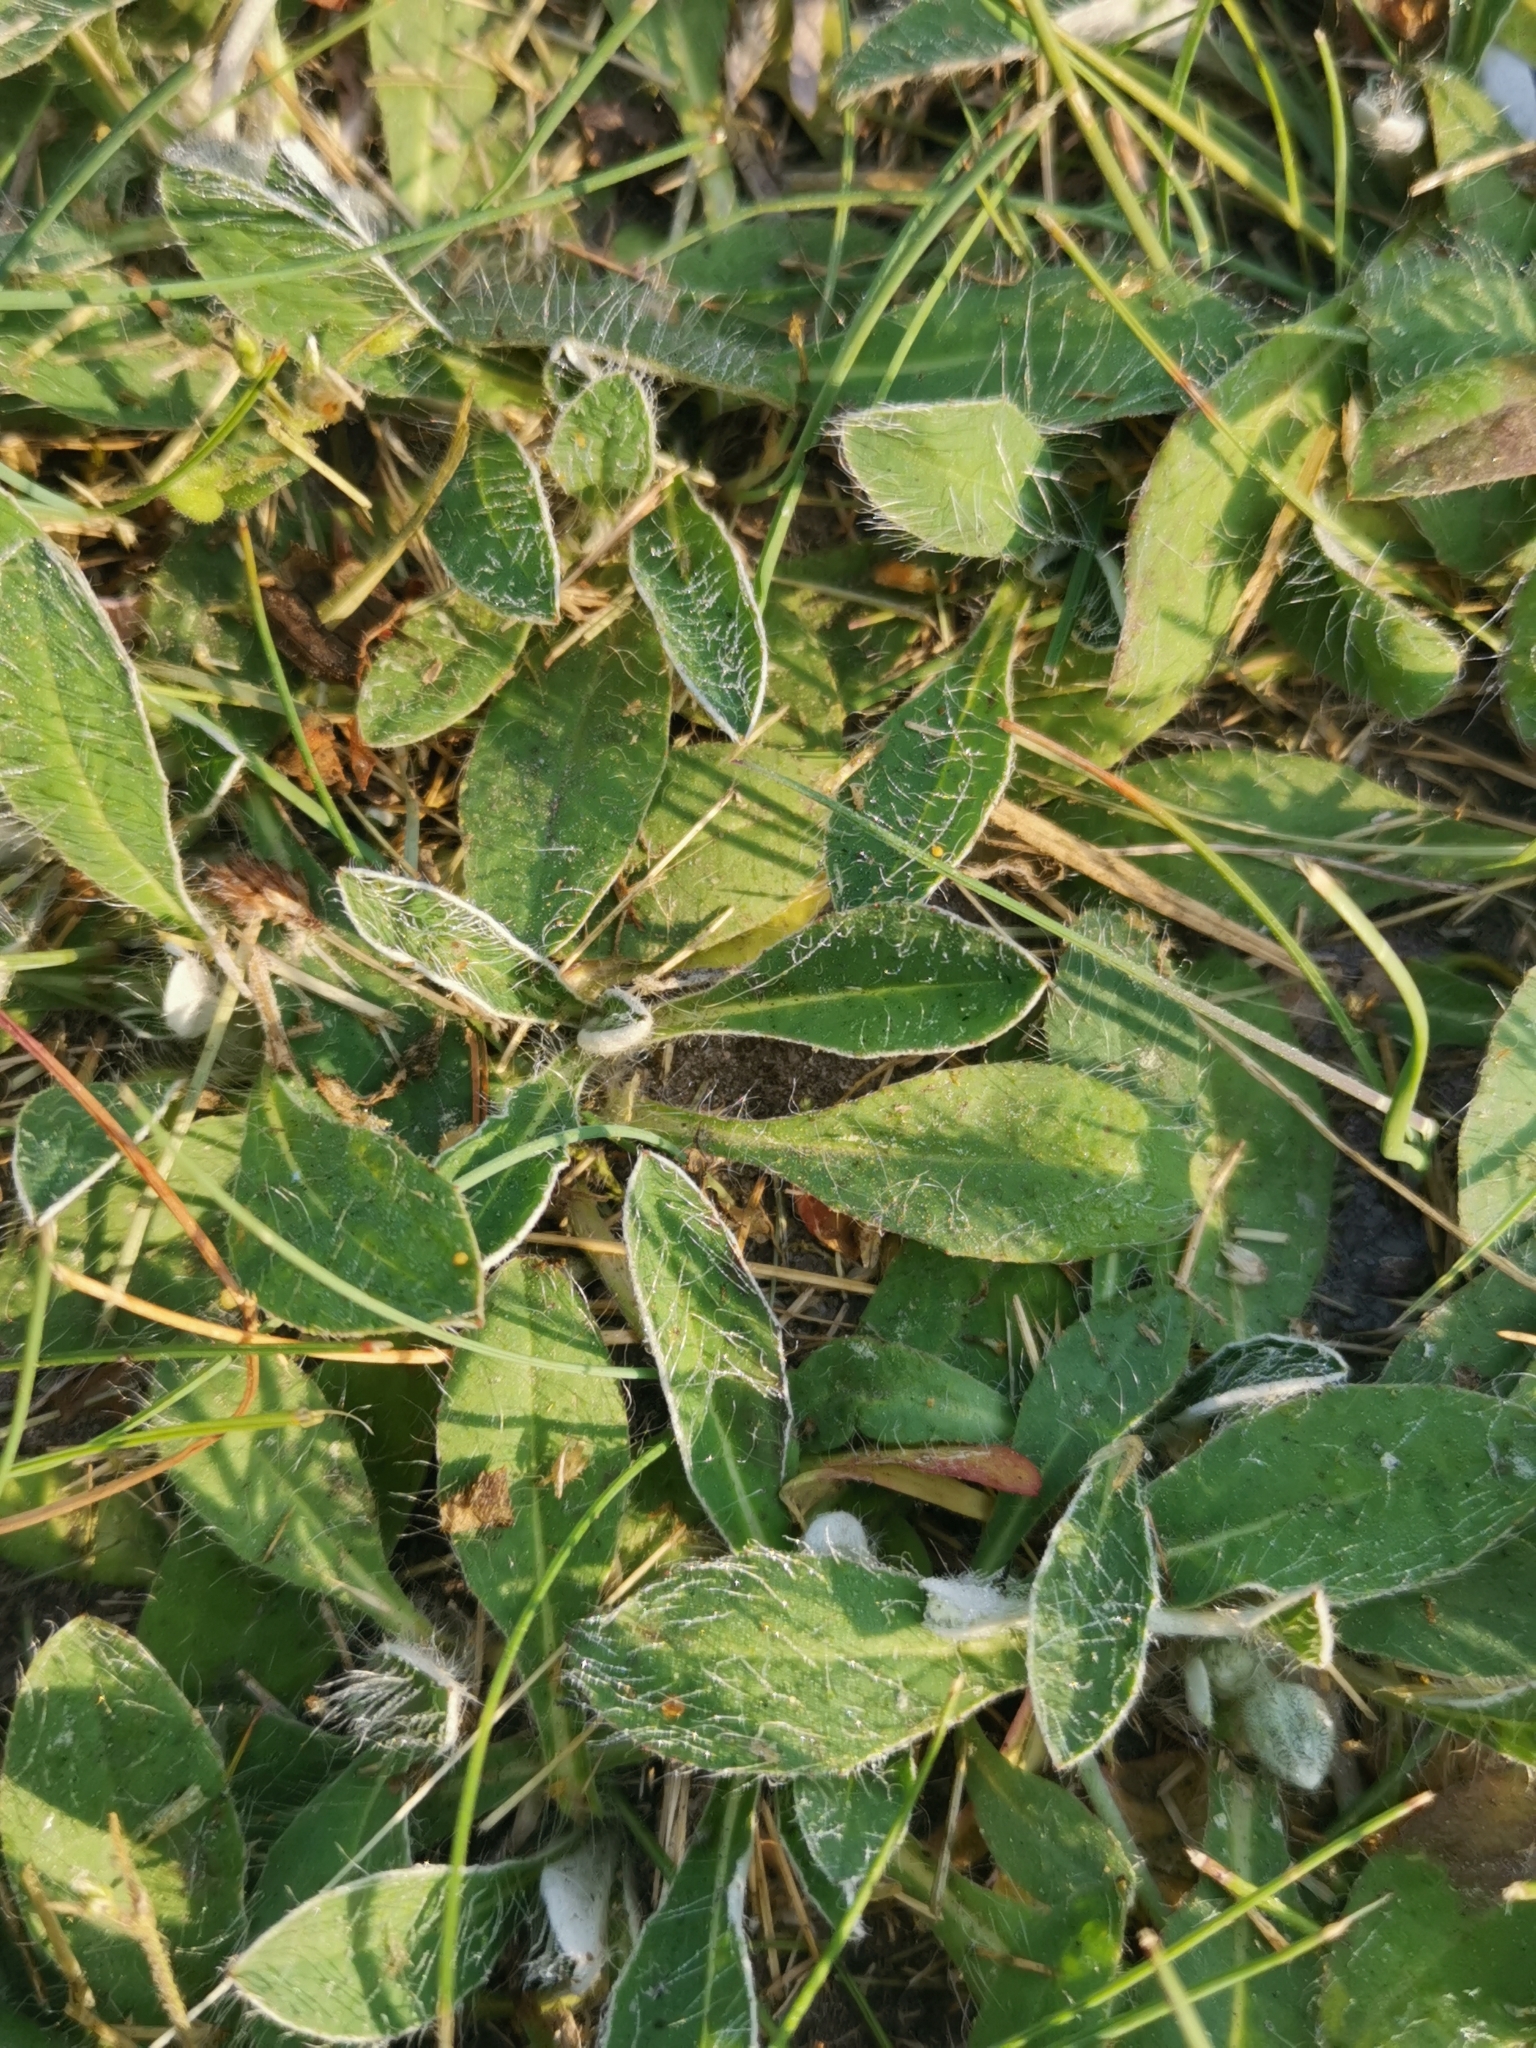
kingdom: Plantae
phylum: Tracheophyta
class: Magnoliopsida
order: Asterales
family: Asteraceae
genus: Pilosella
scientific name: Pilosella officinarum
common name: Mouse-ear hawkweed
